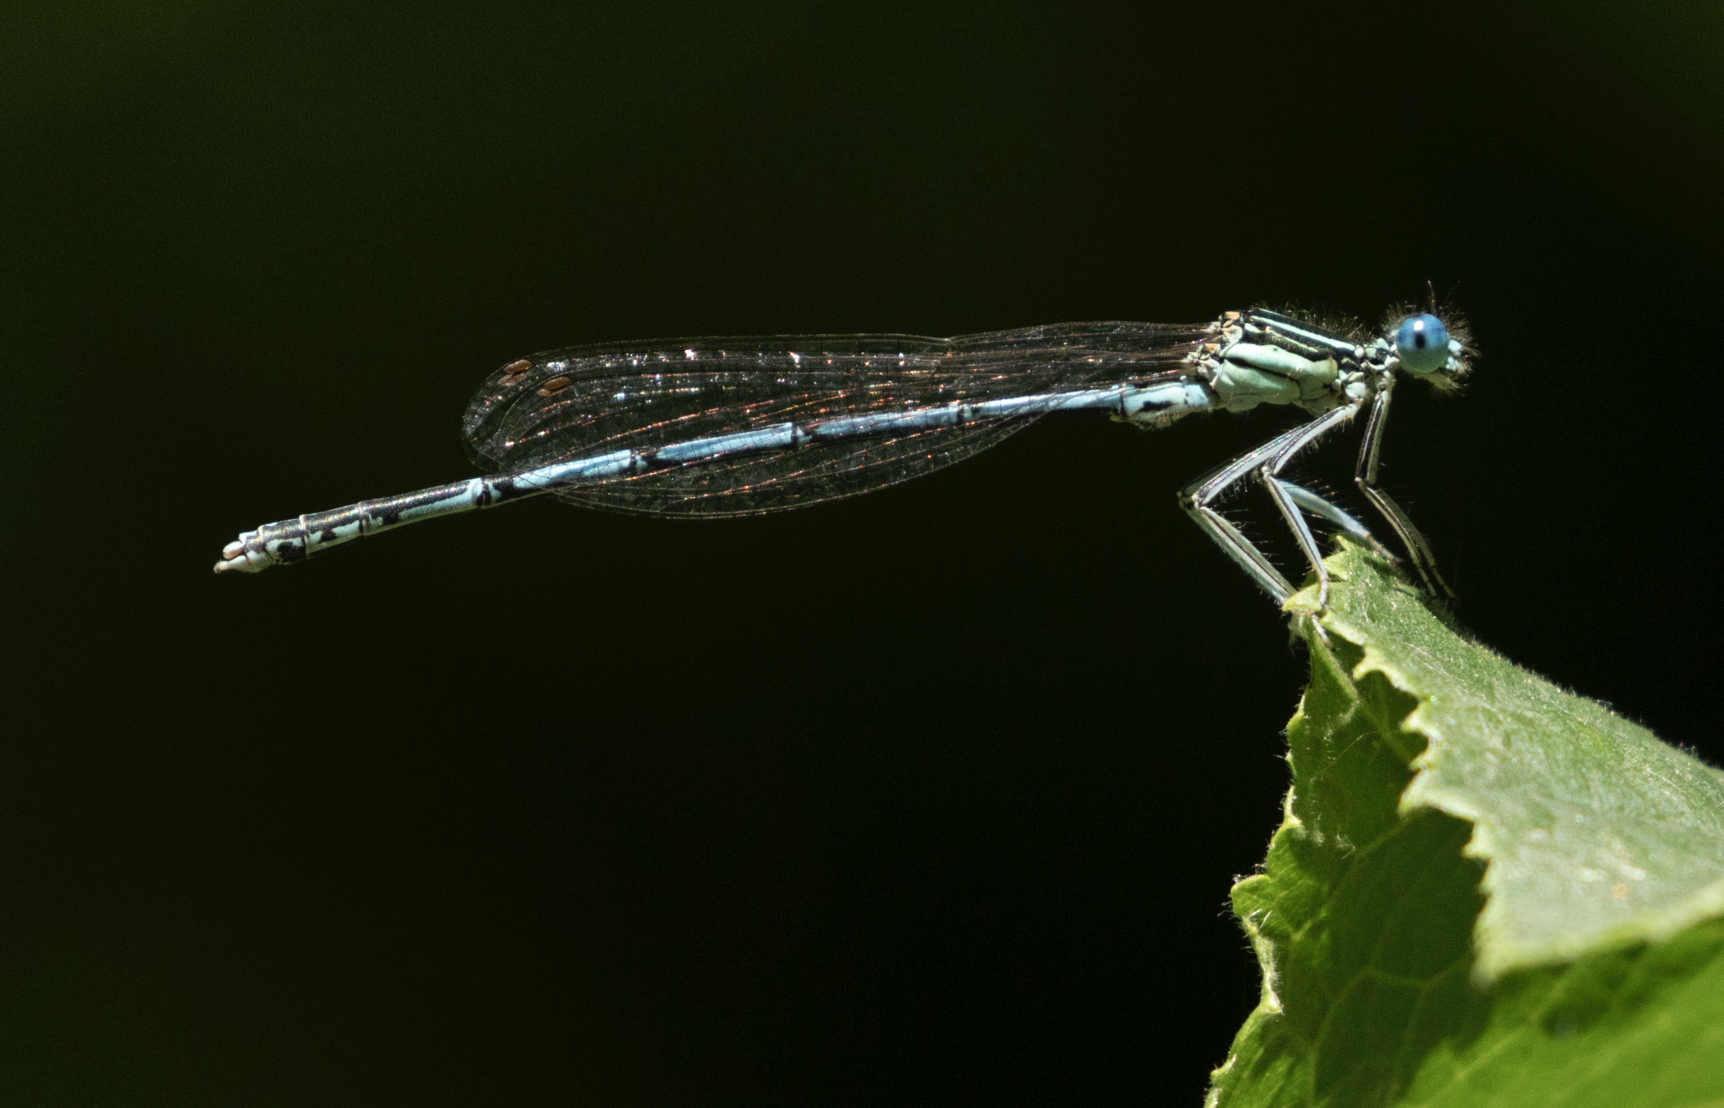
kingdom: Animalia
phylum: Arthropoda
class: Insecta
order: Odonata
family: Platycnemididae
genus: Platycnemis
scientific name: Platycnemis pennipes
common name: White-legged damselfly
